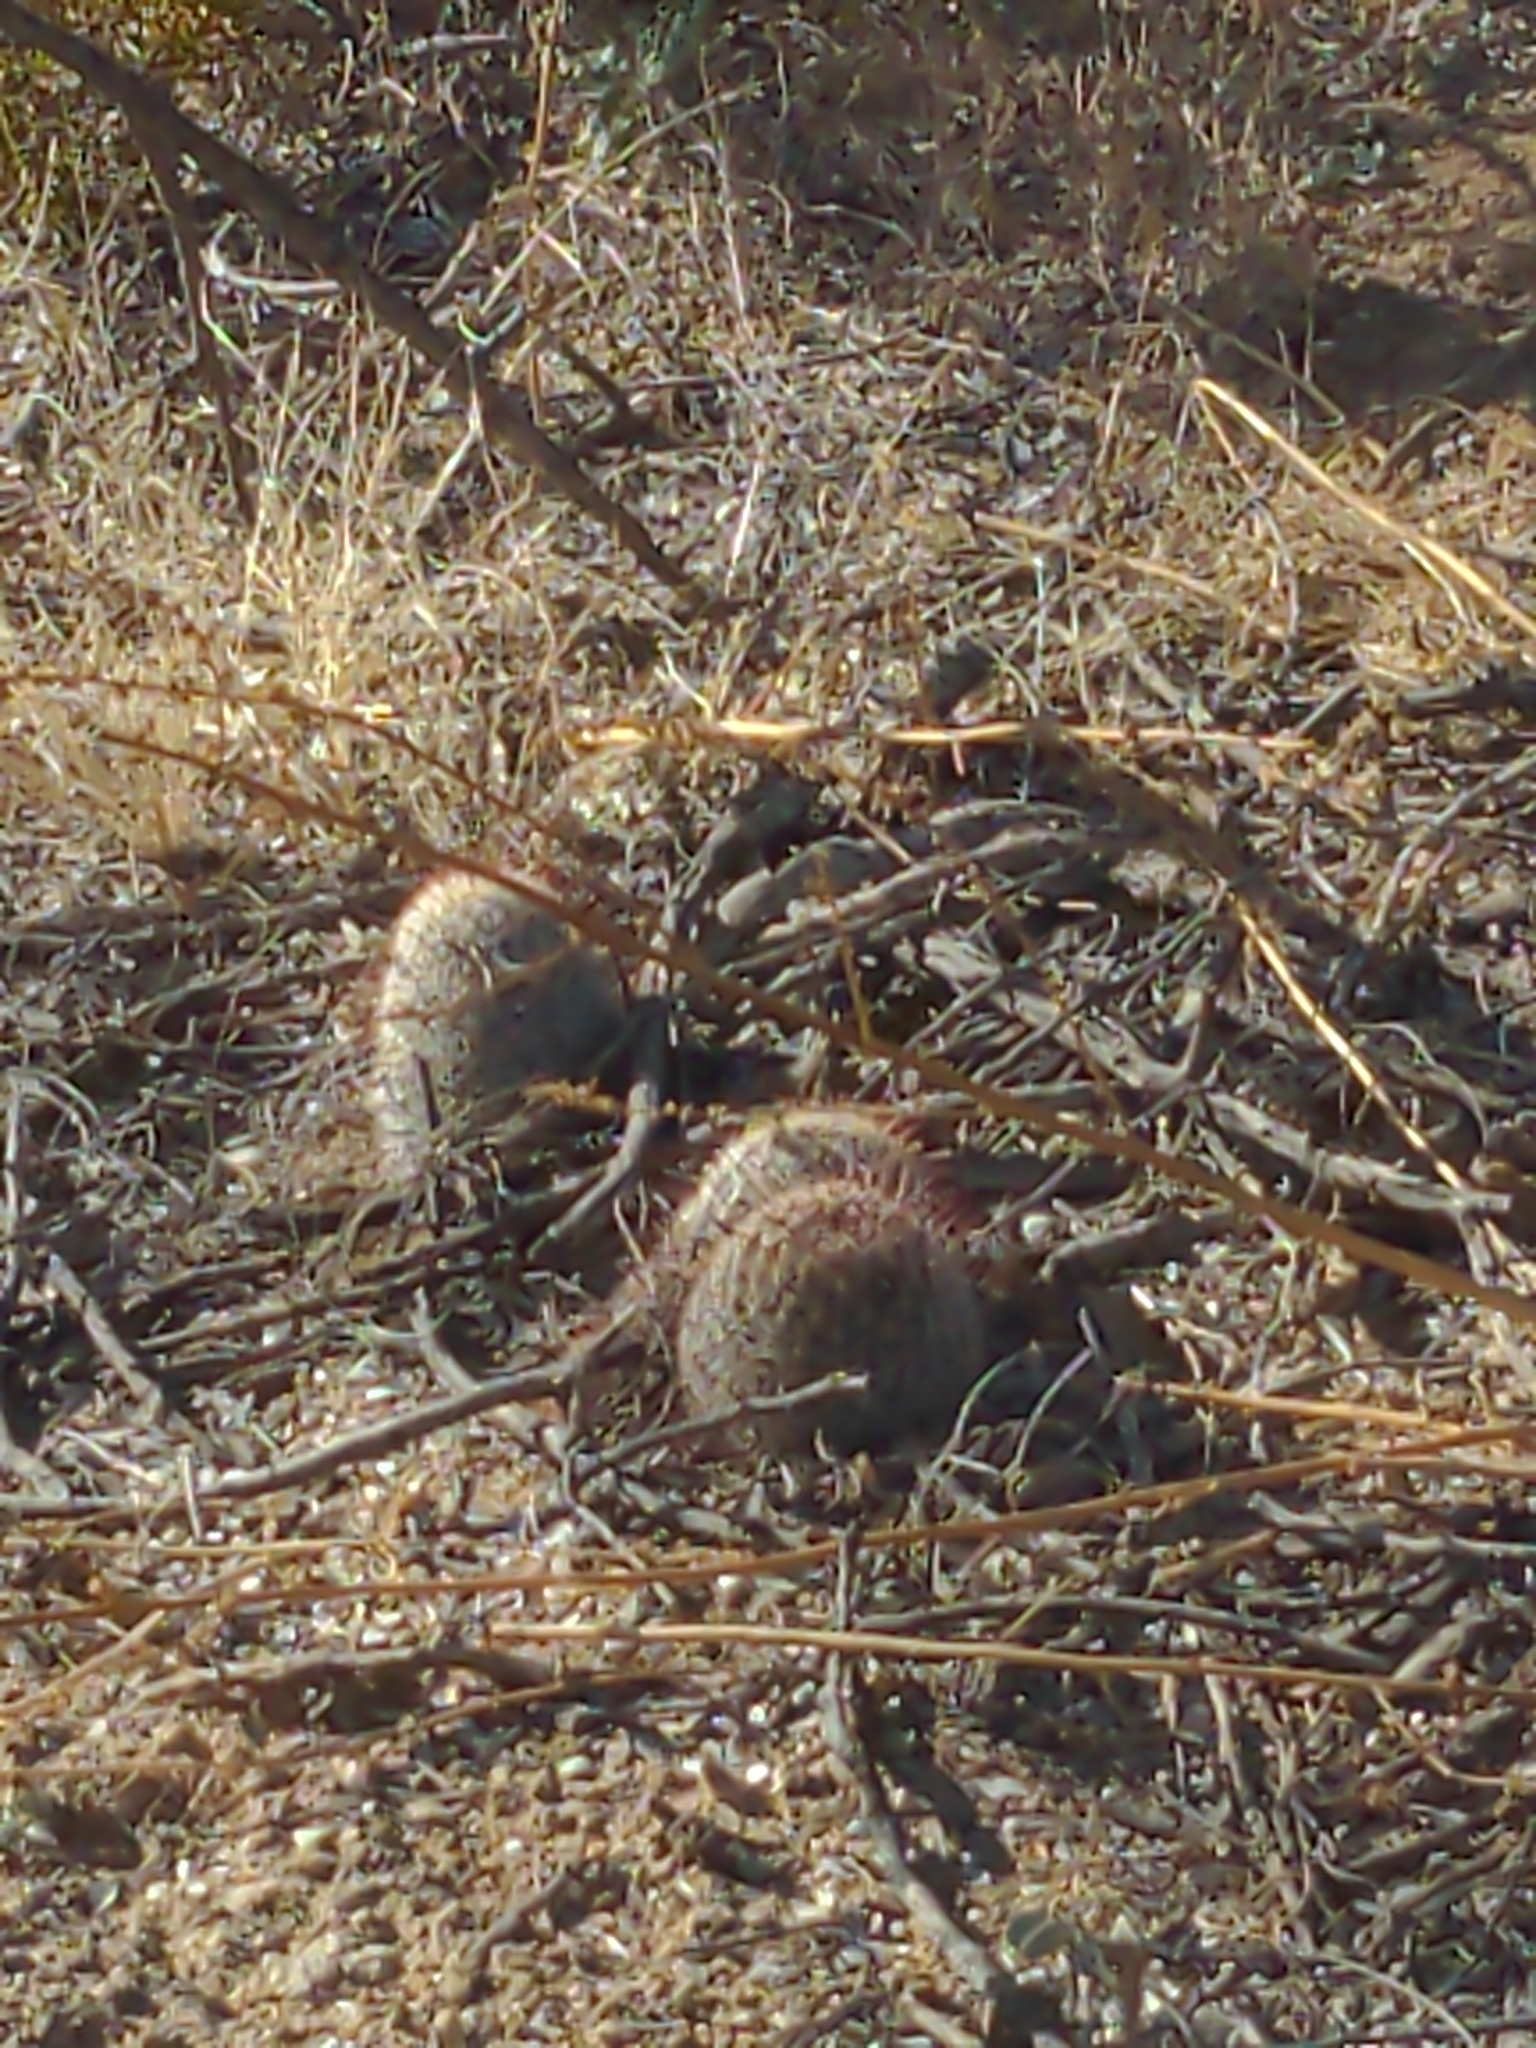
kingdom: Plantae
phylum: Tracheophyta
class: Magnoliopsida
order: Caryophyllales
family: Cactaceae
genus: Cochemiea
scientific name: Cochemiea grahamii
